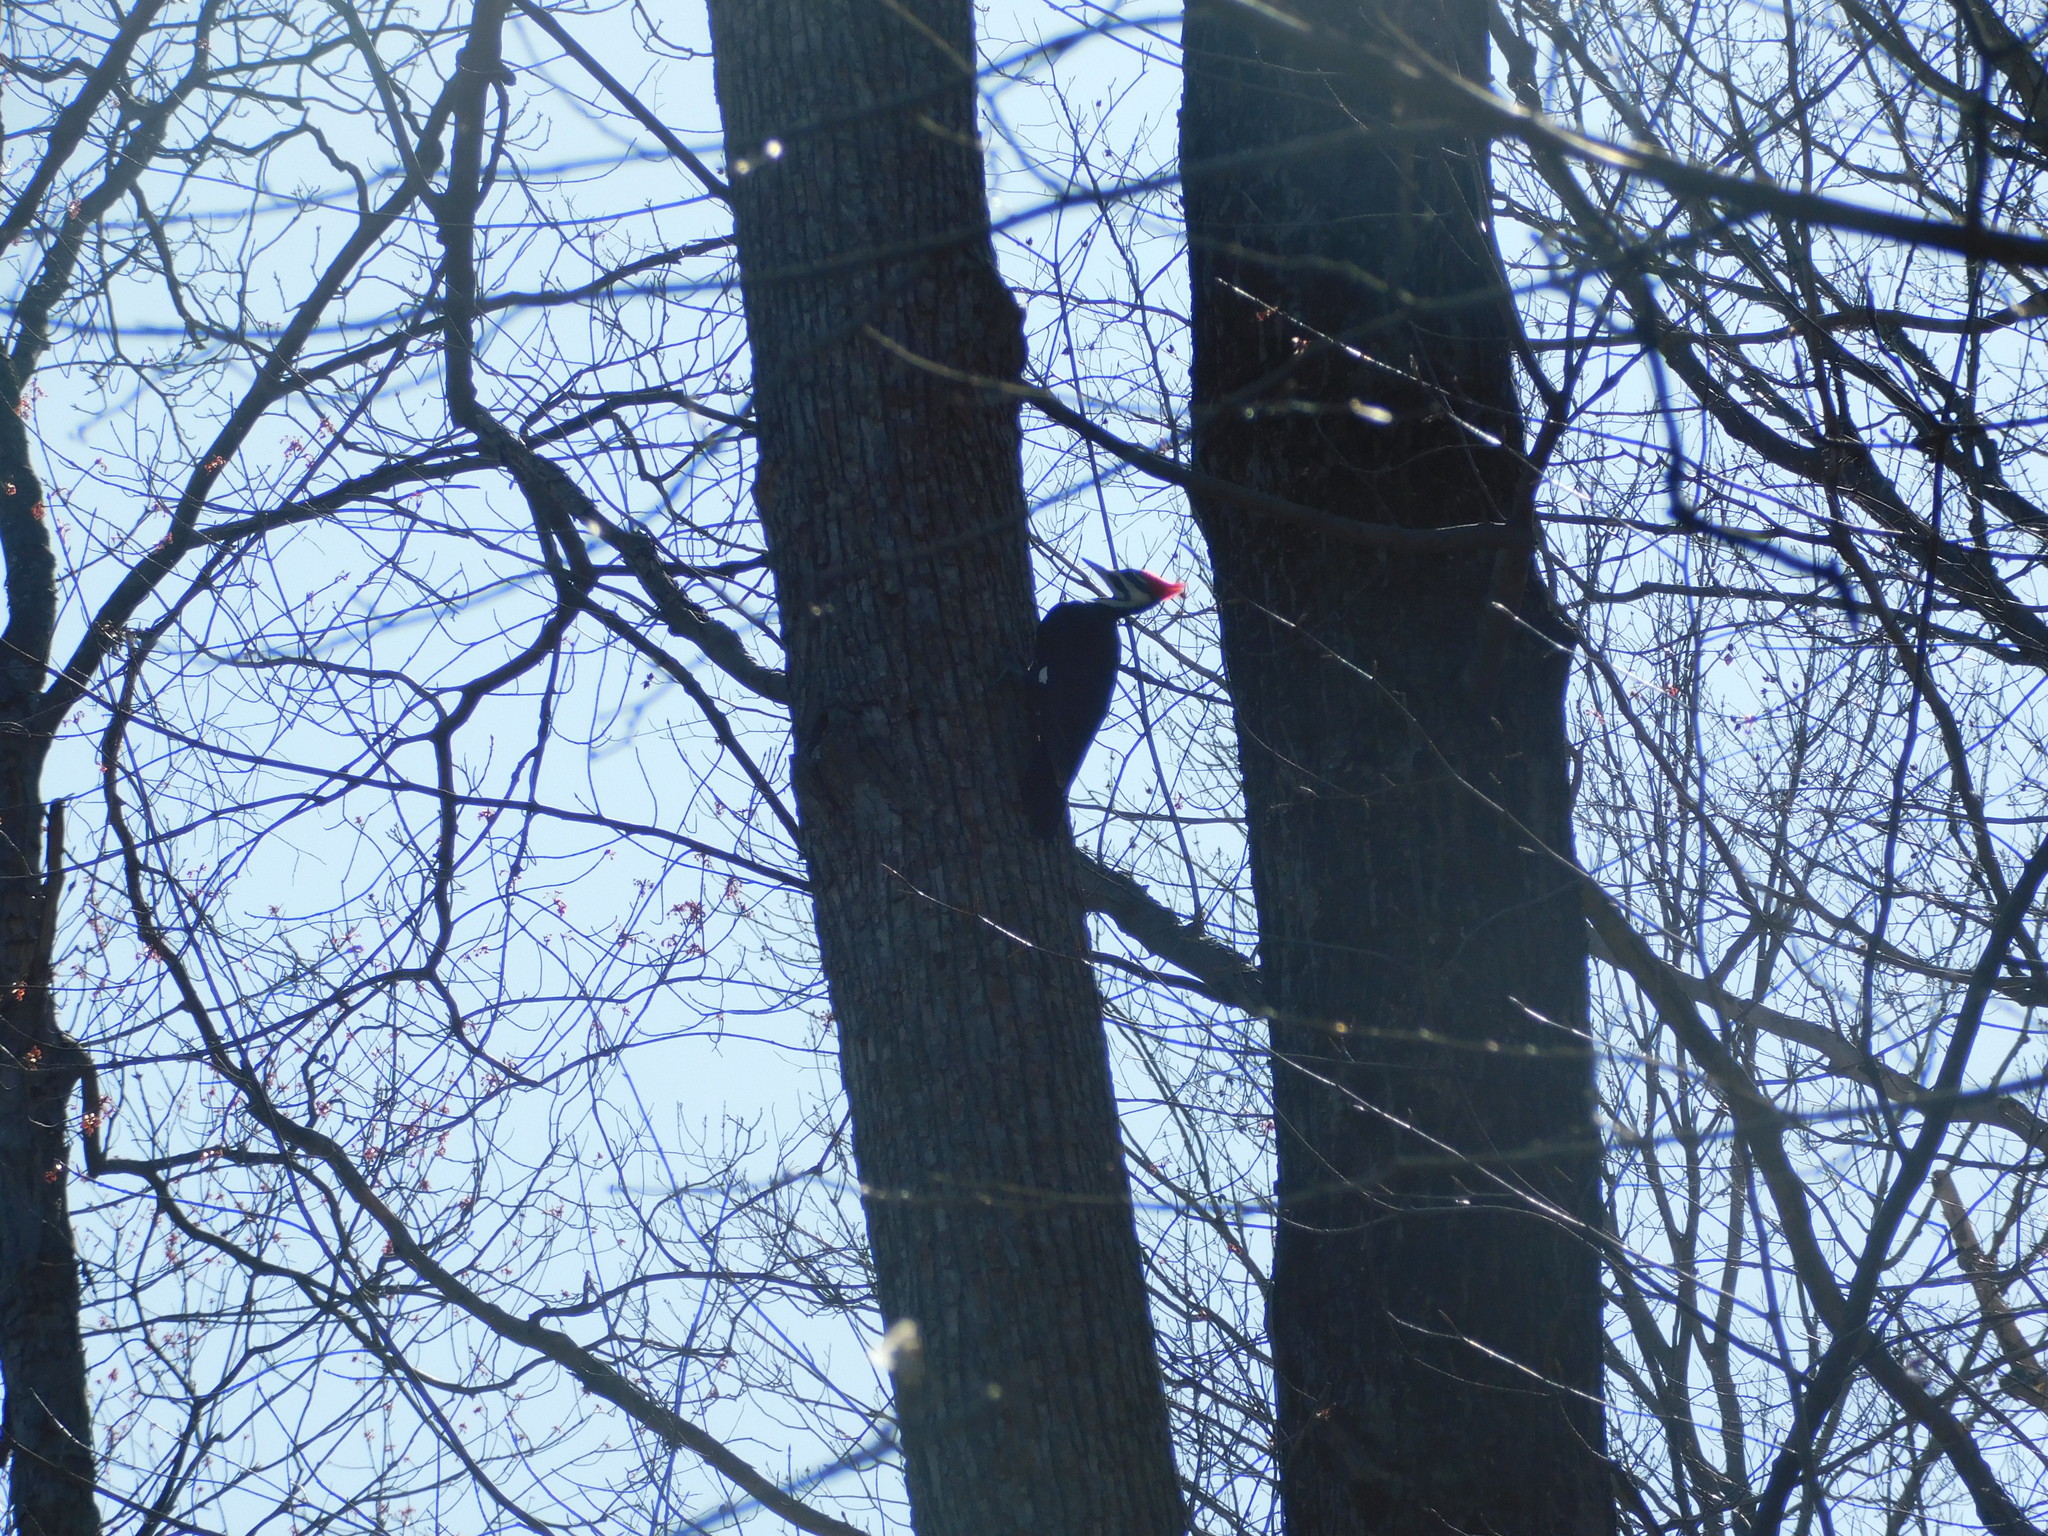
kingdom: Animalia
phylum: Chordata
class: Aves
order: Piciformes
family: Picidae
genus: Dryocopus
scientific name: Dryocopus pileatus
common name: Pileated woodpecker
